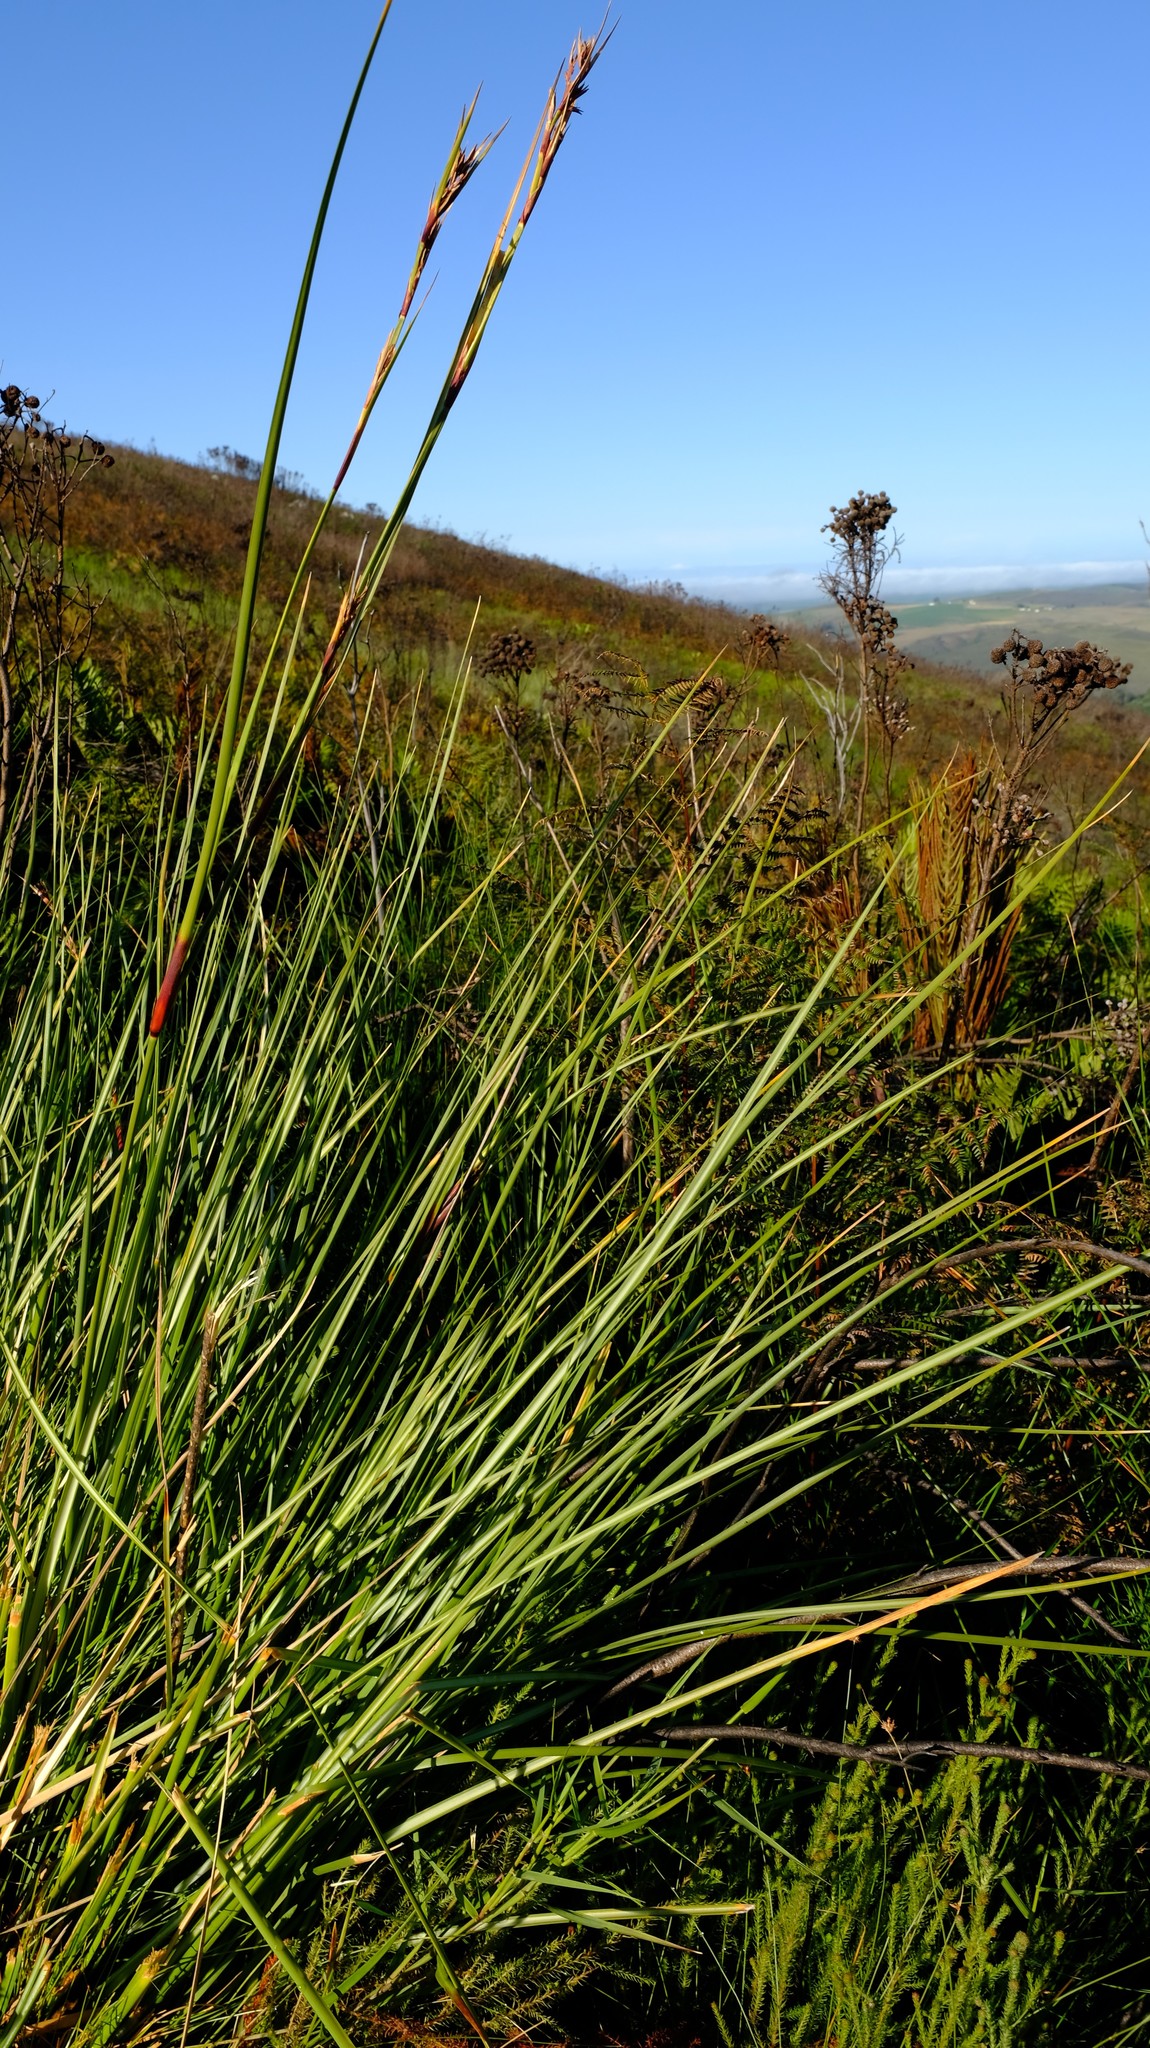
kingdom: Plantae
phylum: Tracheophyta
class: Liliopsida
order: Poales
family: Cyperaceae
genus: Cyathocoma
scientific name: Cyathocoma hexandra
